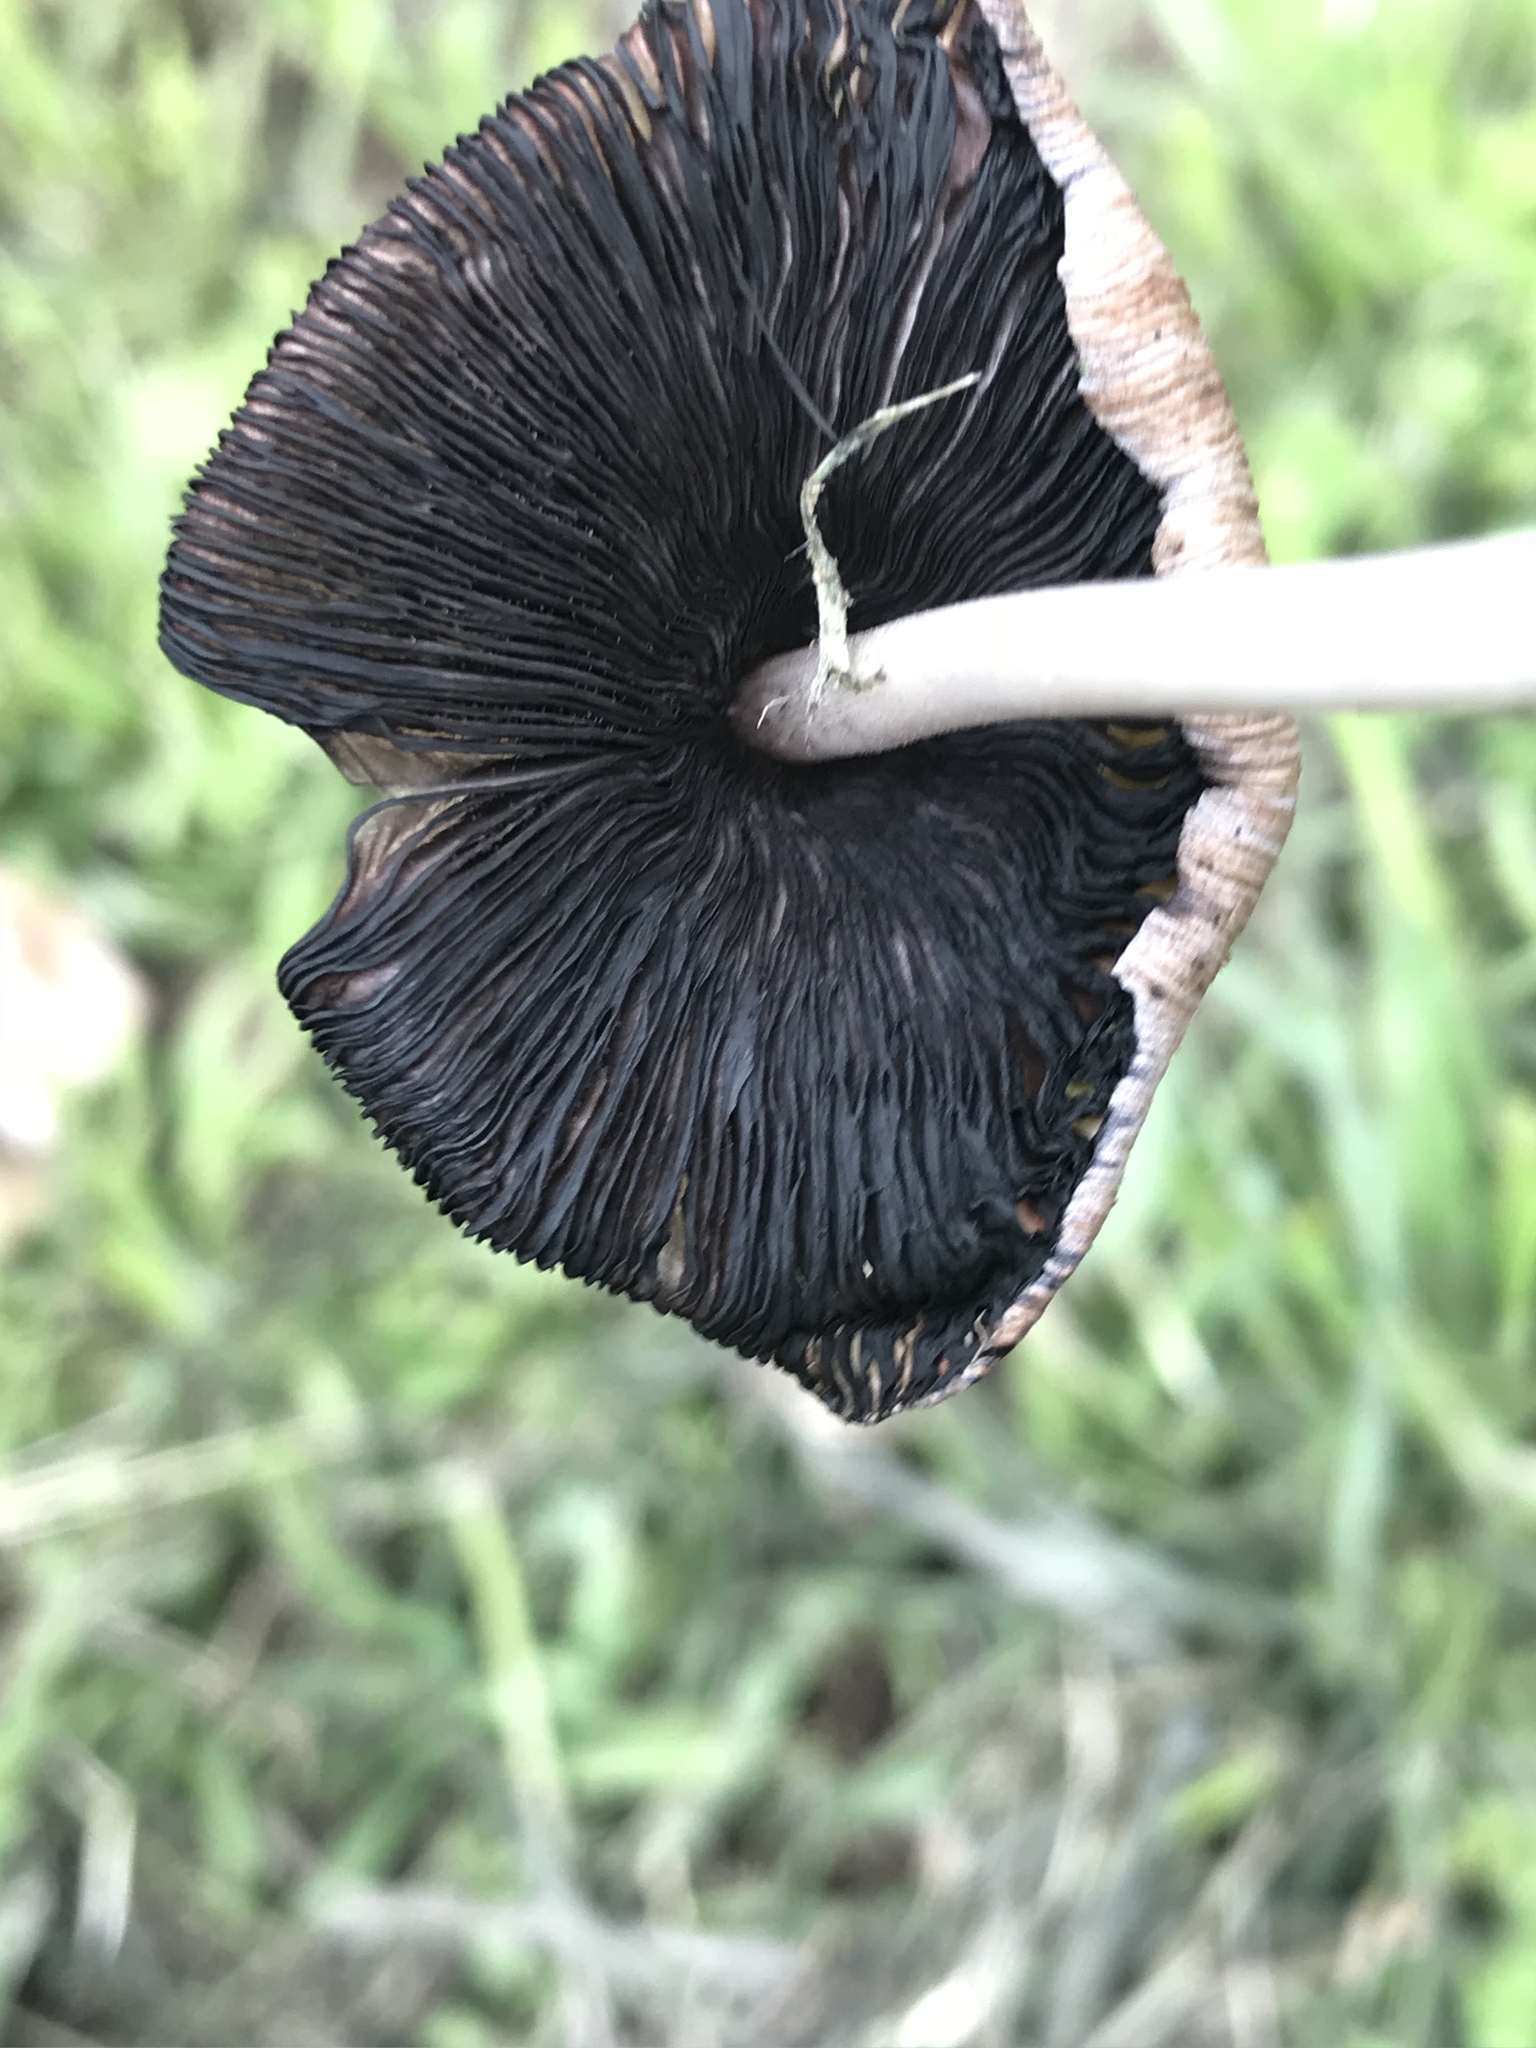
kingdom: Fungi
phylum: Basidiomycota
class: Agaricomycetes
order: Agaricales
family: Psathyrellaceae
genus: Coprinellus
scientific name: Coprinellus micaceus
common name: Glistening ink-cap
